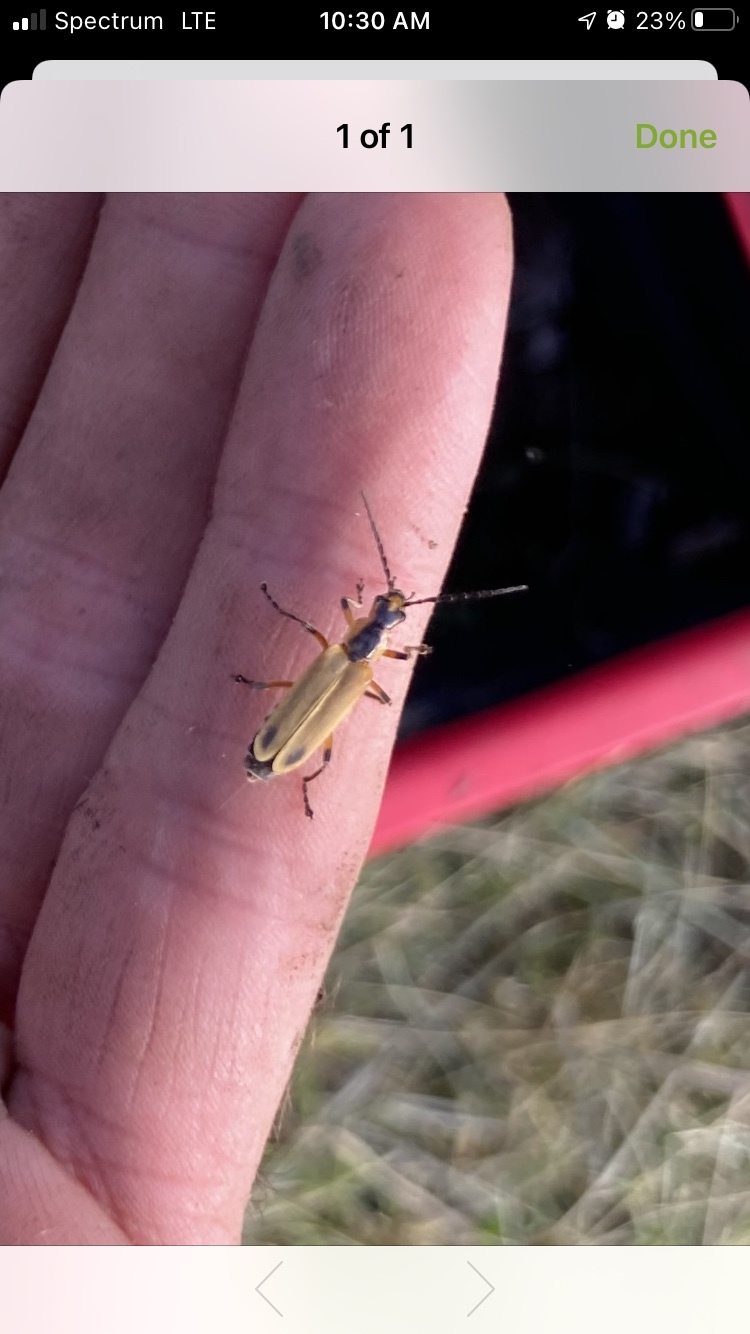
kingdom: Animalia
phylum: Arthropoda
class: Insecta
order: Coleoptera
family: Cantharidae
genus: Chauliognathus
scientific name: Chauliognathus marginatus
